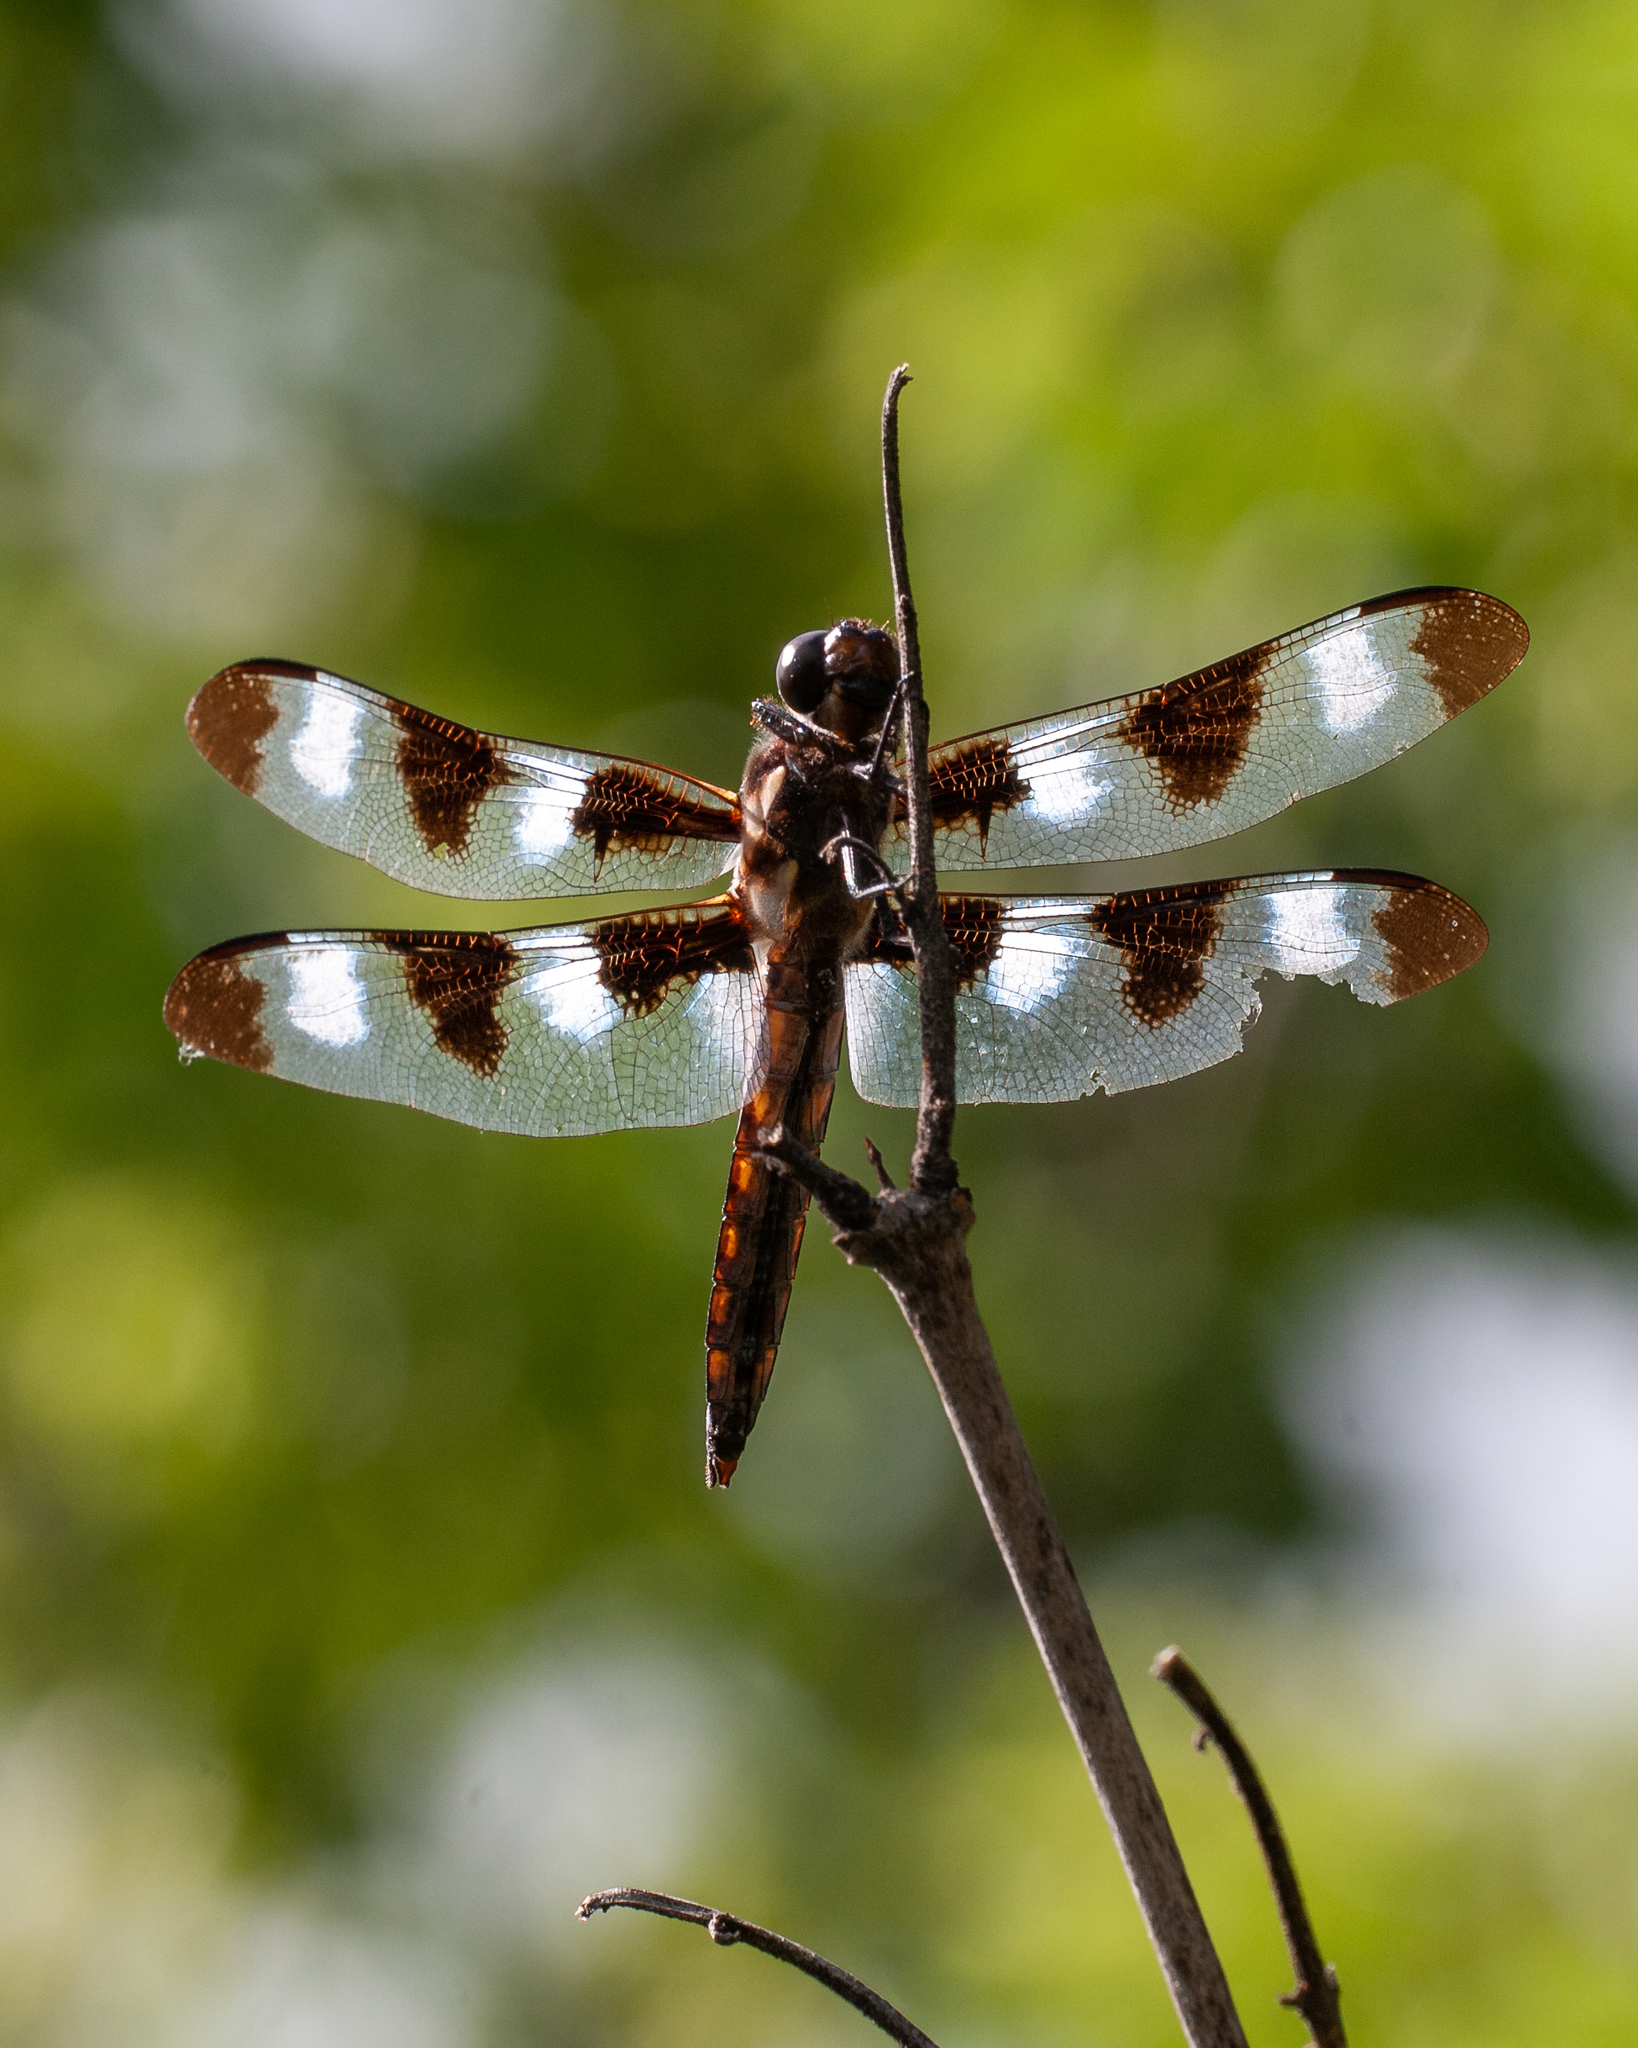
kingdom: Animalia
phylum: Arthropoda
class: Insecta
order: Odonata
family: Libellulidae
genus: Libellula
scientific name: Libellula pulchella
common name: Twelve-spotted skimmer
